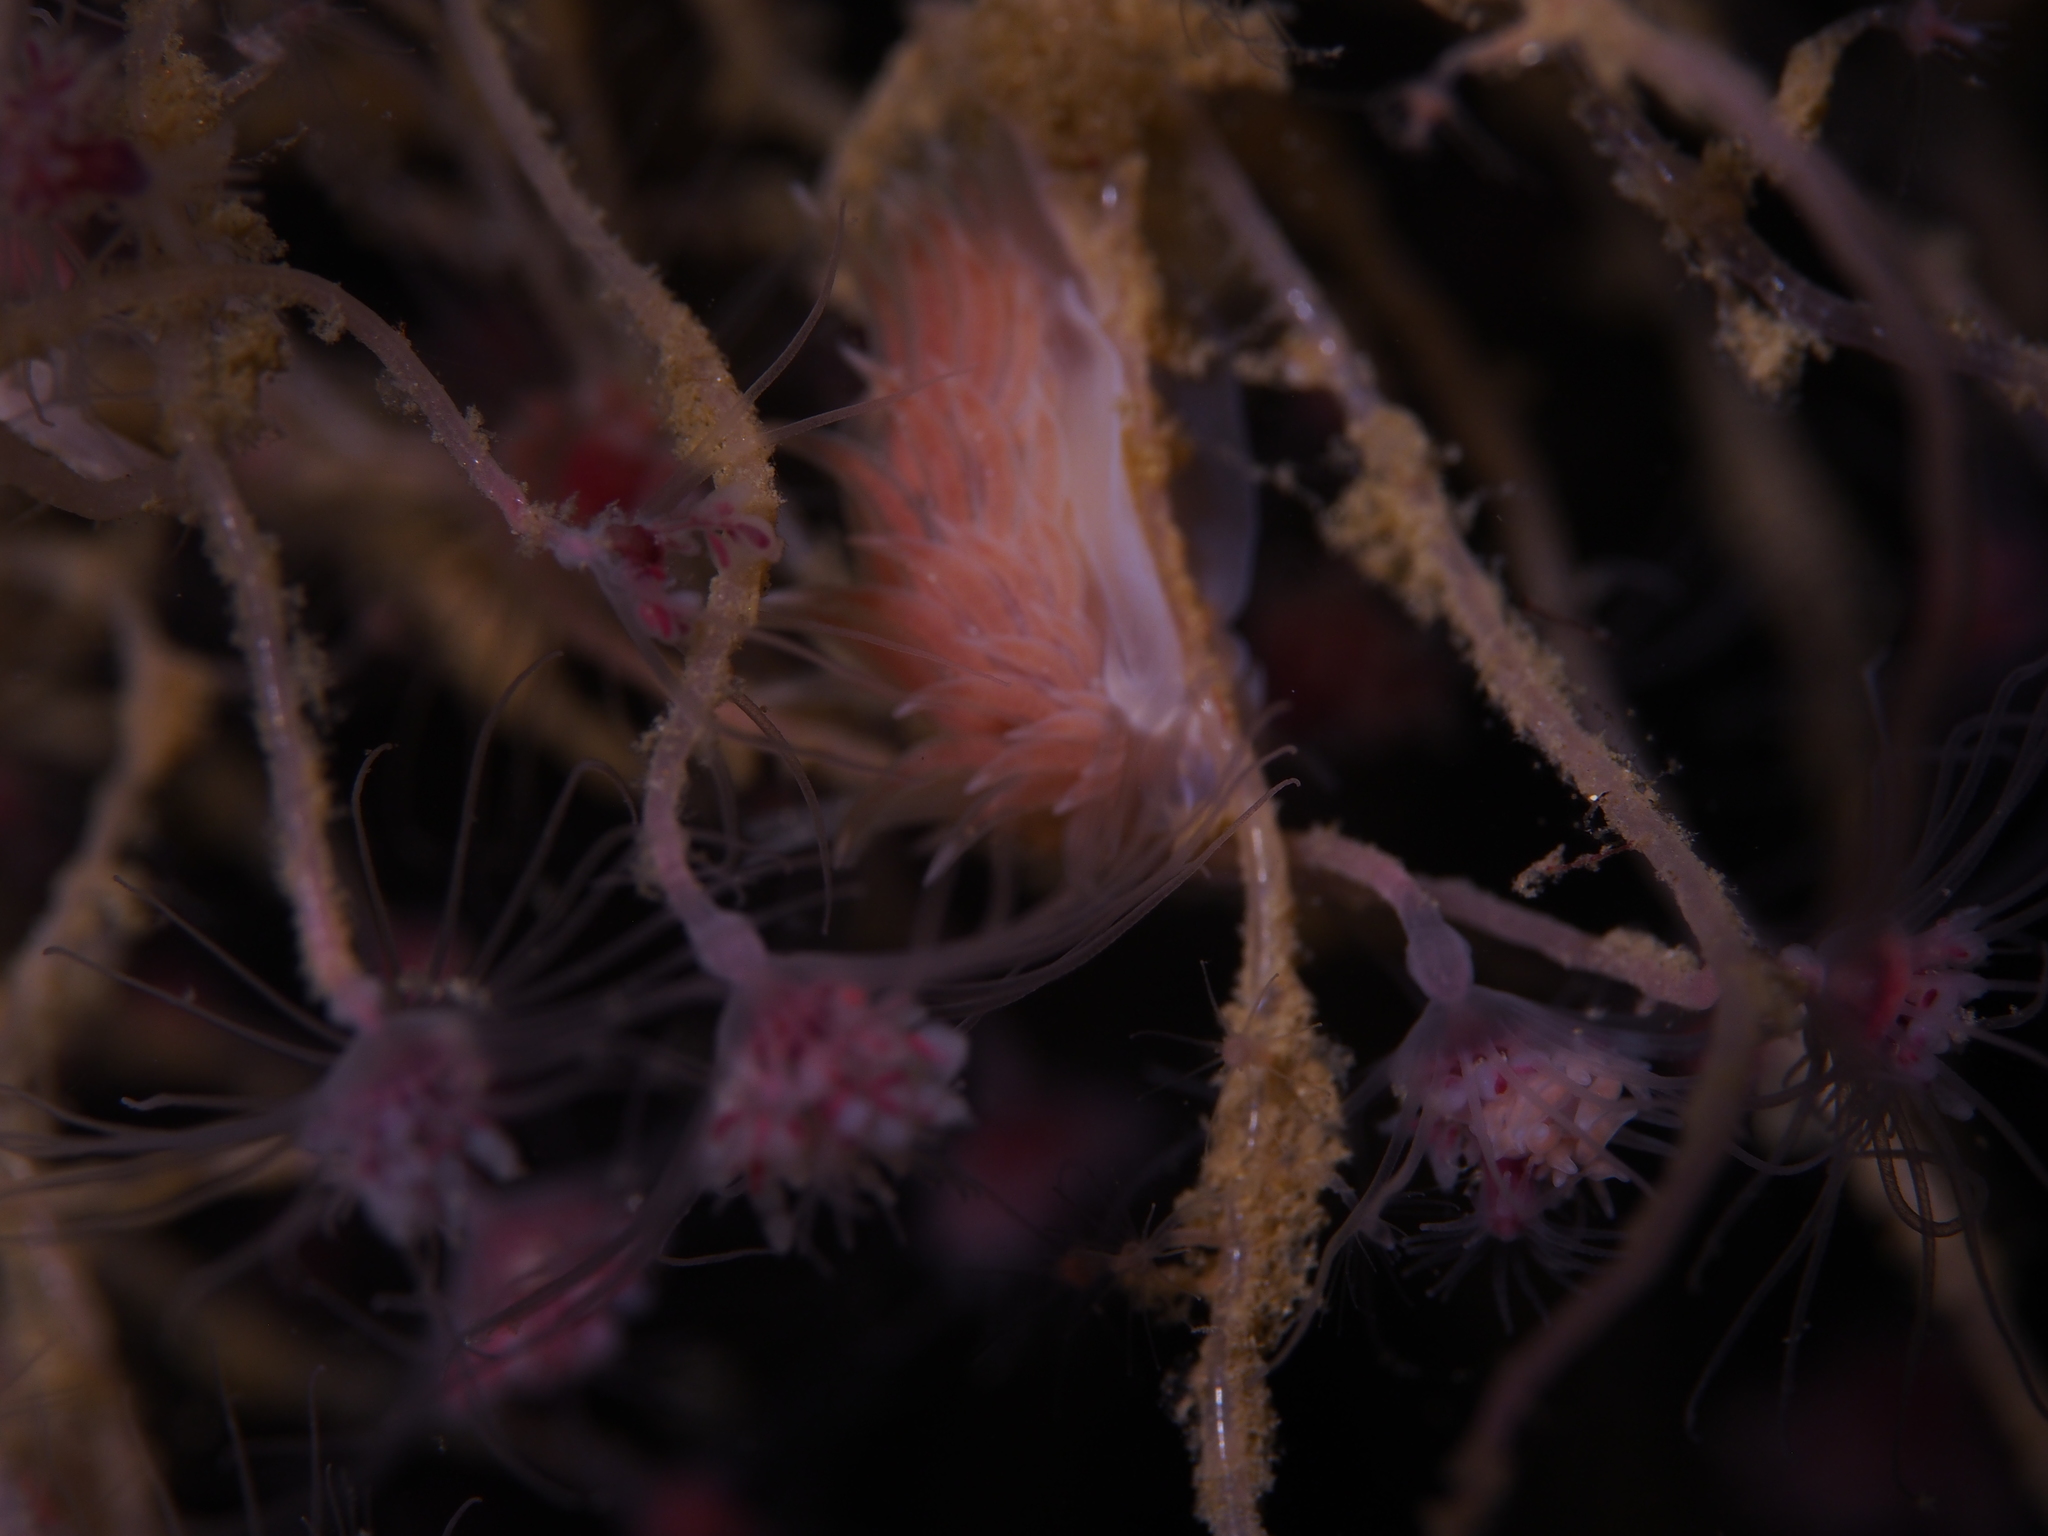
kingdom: Animalia
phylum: Mollusca
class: Gastropoda
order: Nudibranchia
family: Cumanotidae
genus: Cumanotus
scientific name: Cumanotus beaumonti
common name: Polyp aeolis
